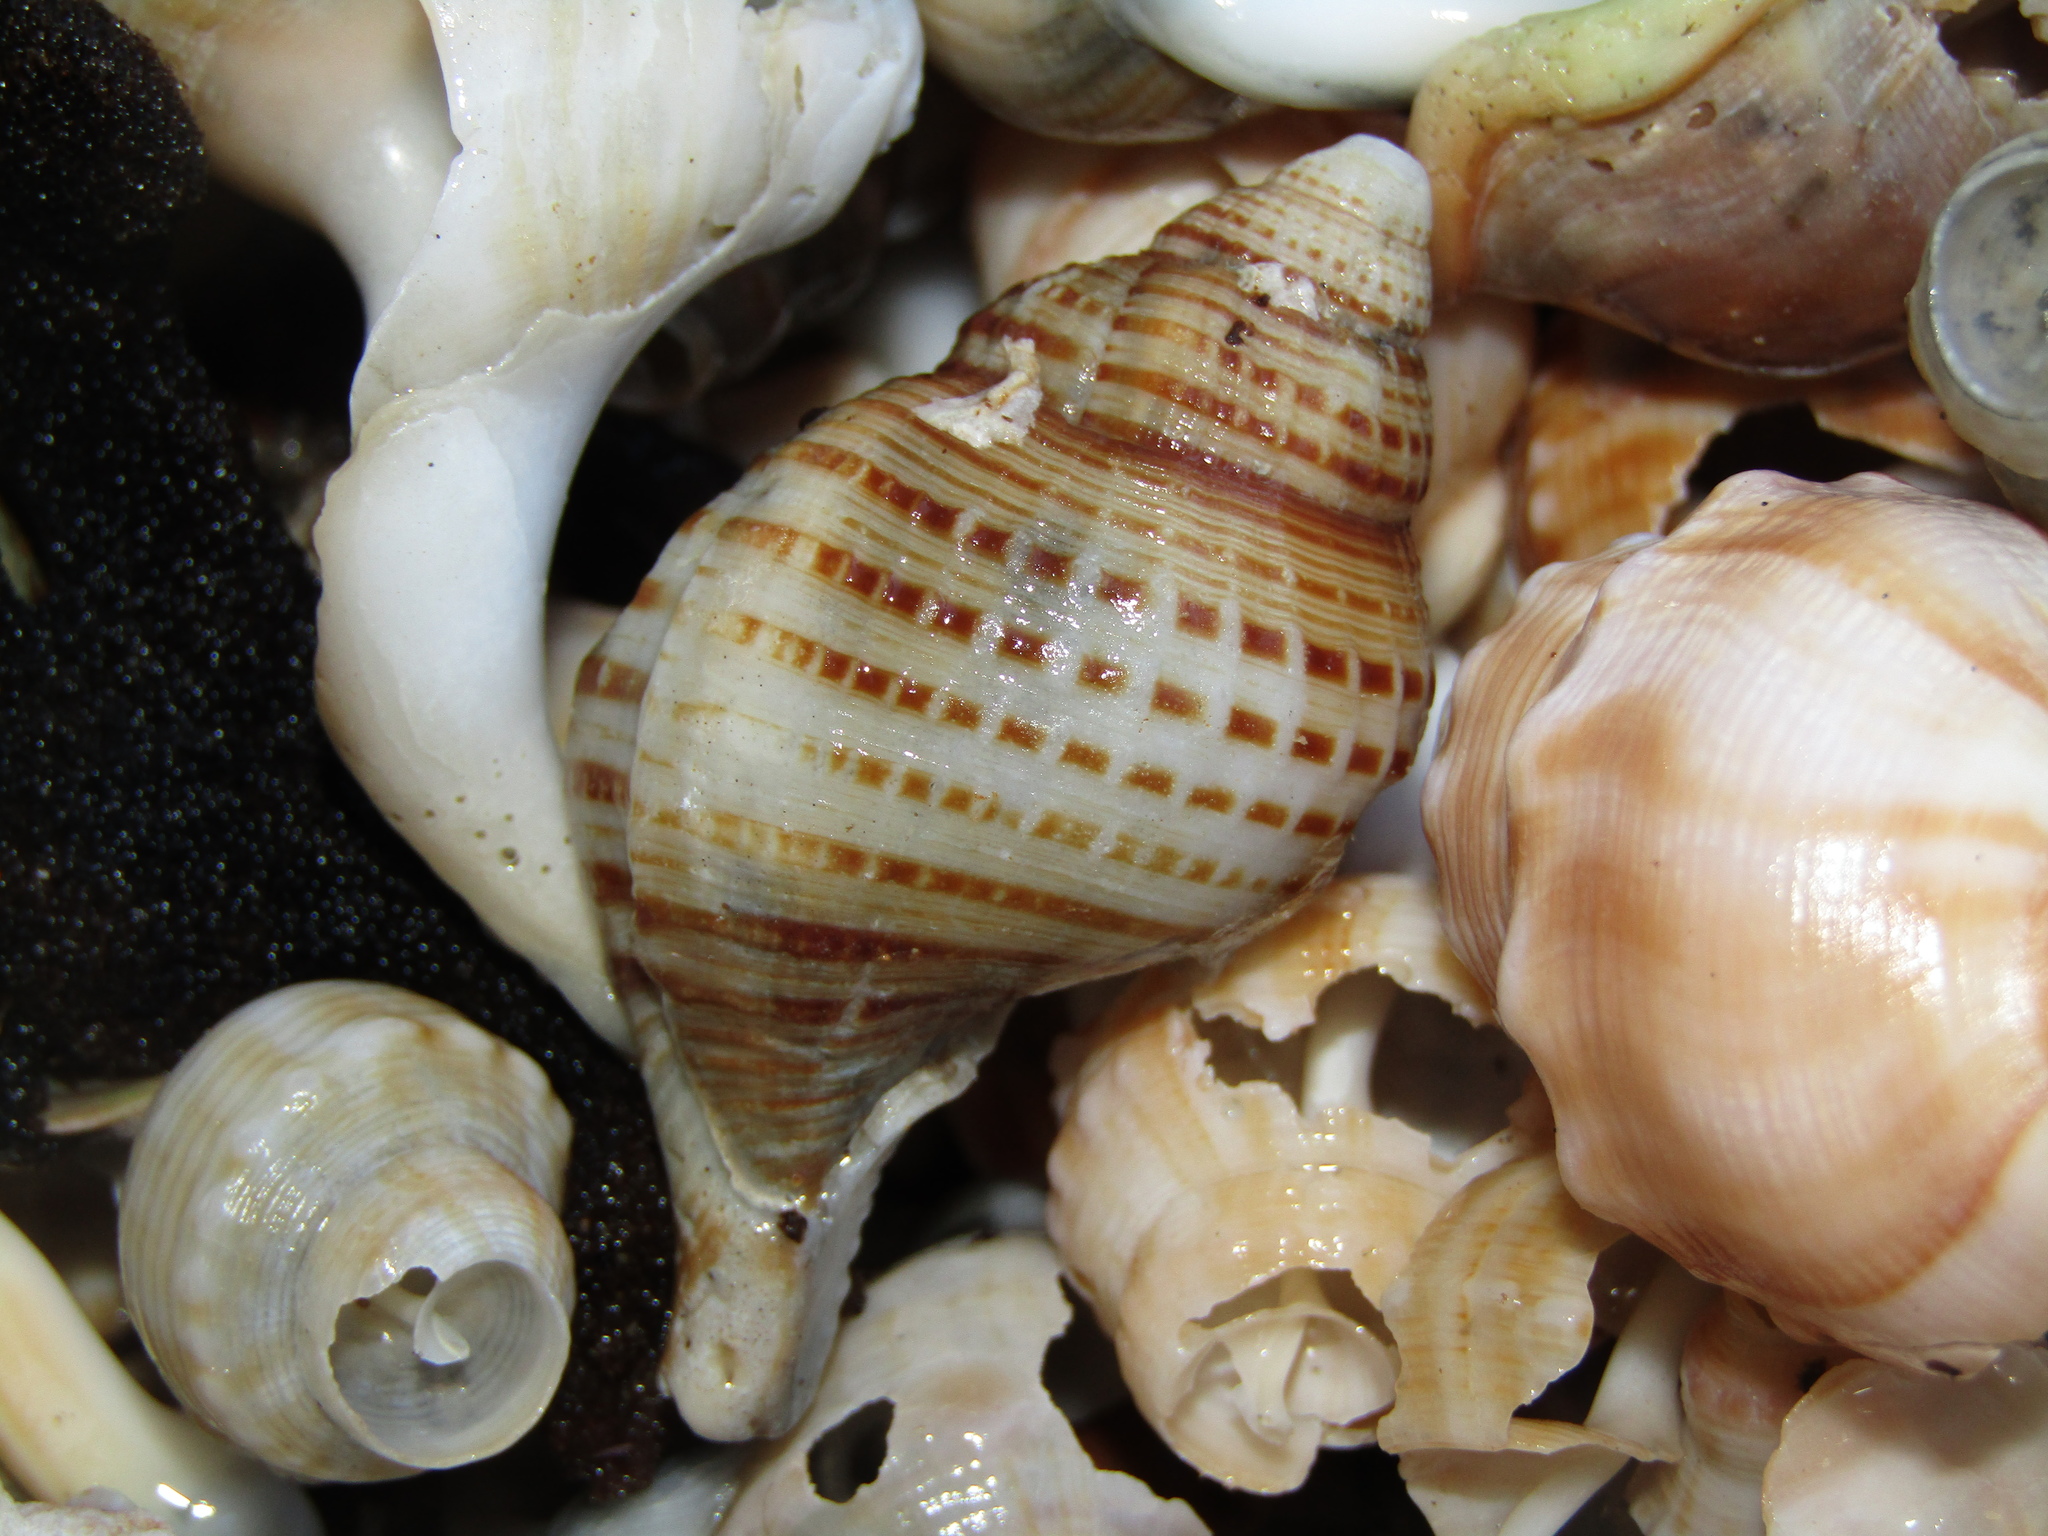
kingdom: Animalia
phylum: Mollusca
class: Gastropoda
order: Littorinimorpha
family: Cymatiidae
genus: Argobuccinum
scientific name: Argobuccinum pustulosum
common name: Pustular triton
